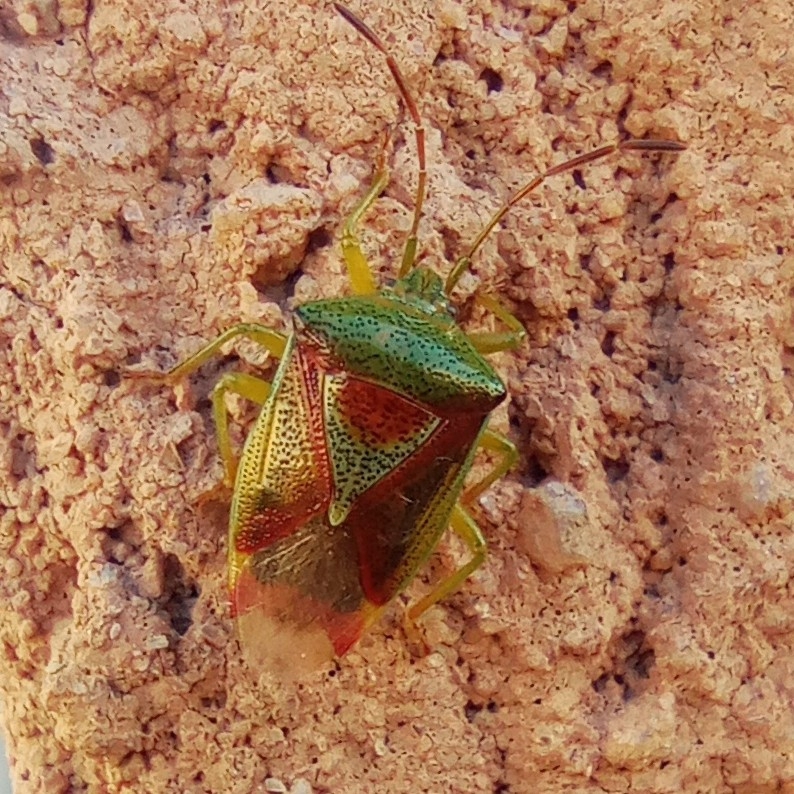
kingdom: Animalia
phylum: Arthropoda
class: Insecta
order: Hemiptera
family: Acanthosomatidae
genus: Elasmostethus
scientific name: Elasmostethus interstinctus
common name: Birch shieldbug
